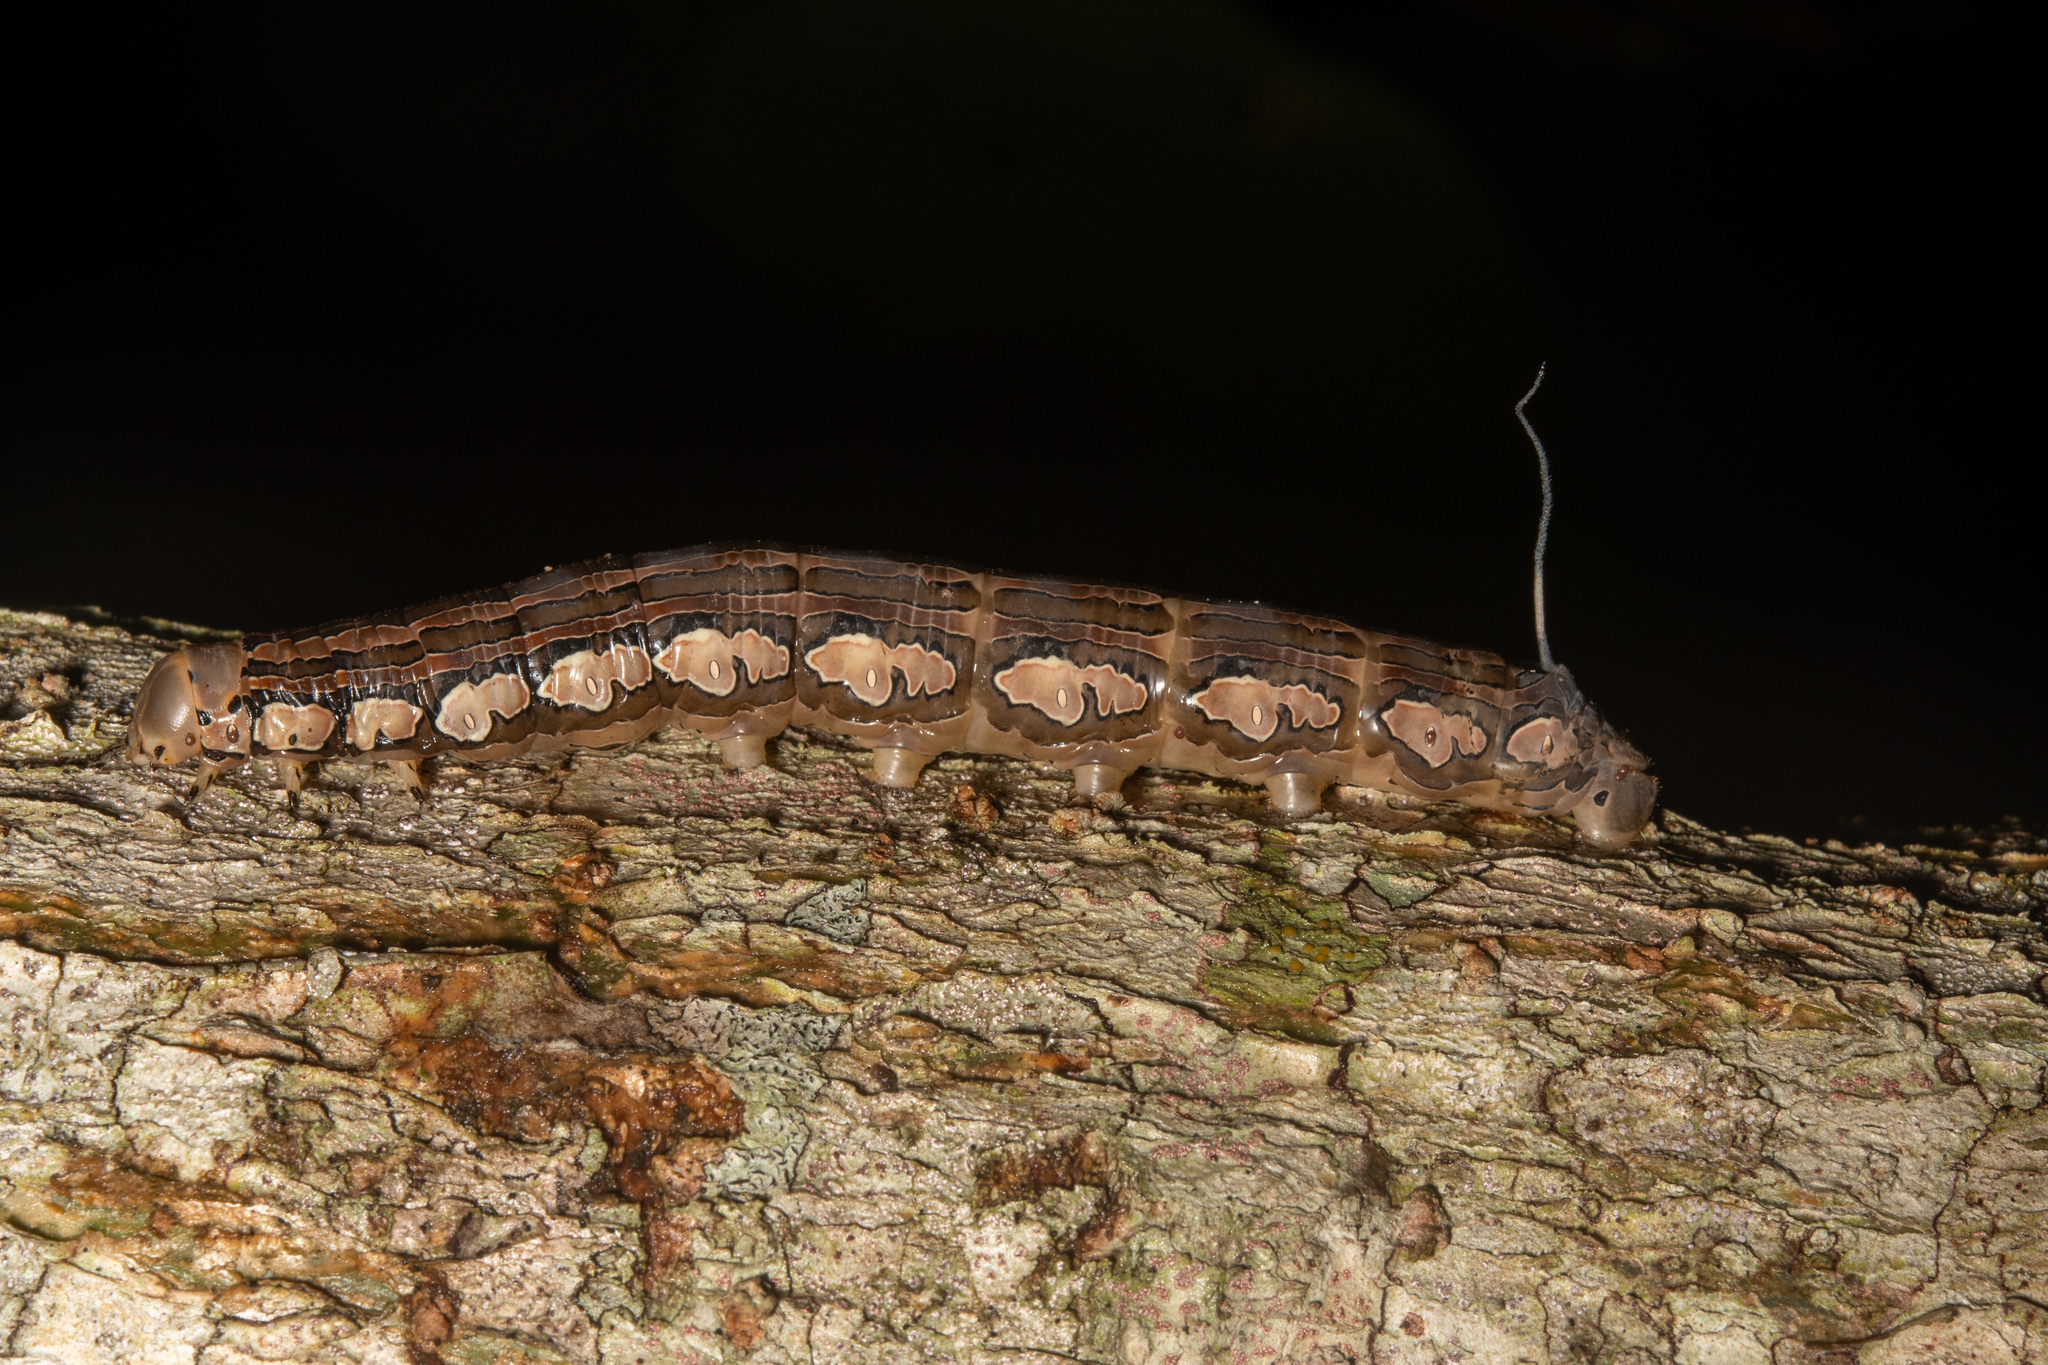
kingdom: Animalia
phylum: Arthropoda
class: Insecta
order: Lepidoptera
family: Sphingidae
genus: Isognathus
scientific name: Isognathus rimosa
